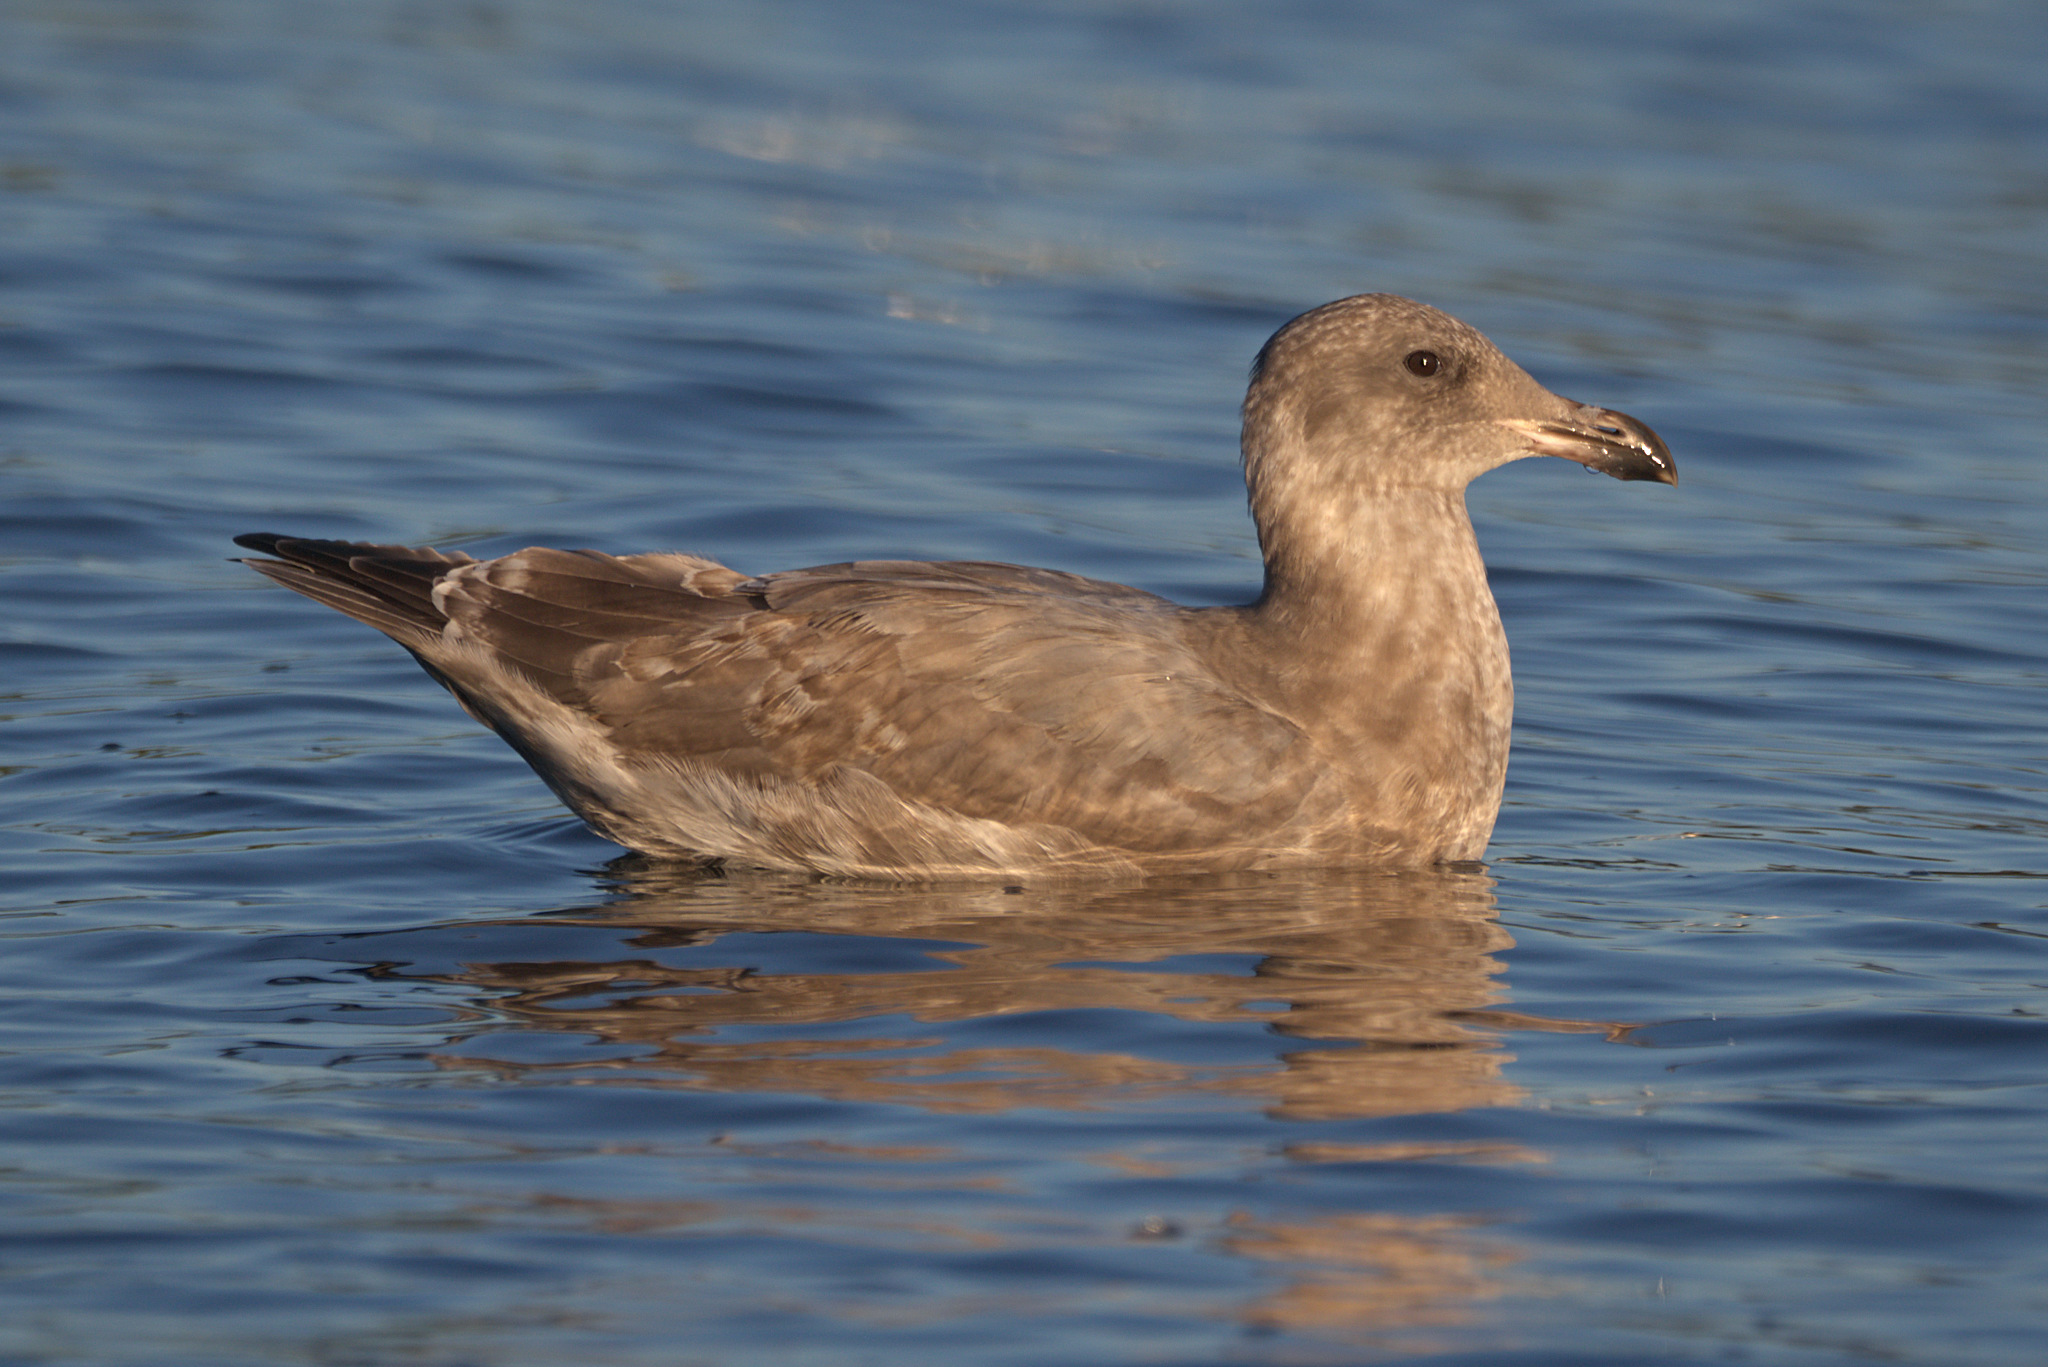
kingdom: Animalia
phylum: Chordata
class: Aves
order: Charadriiformes
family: Laridae
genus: Larus
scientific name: Larus
